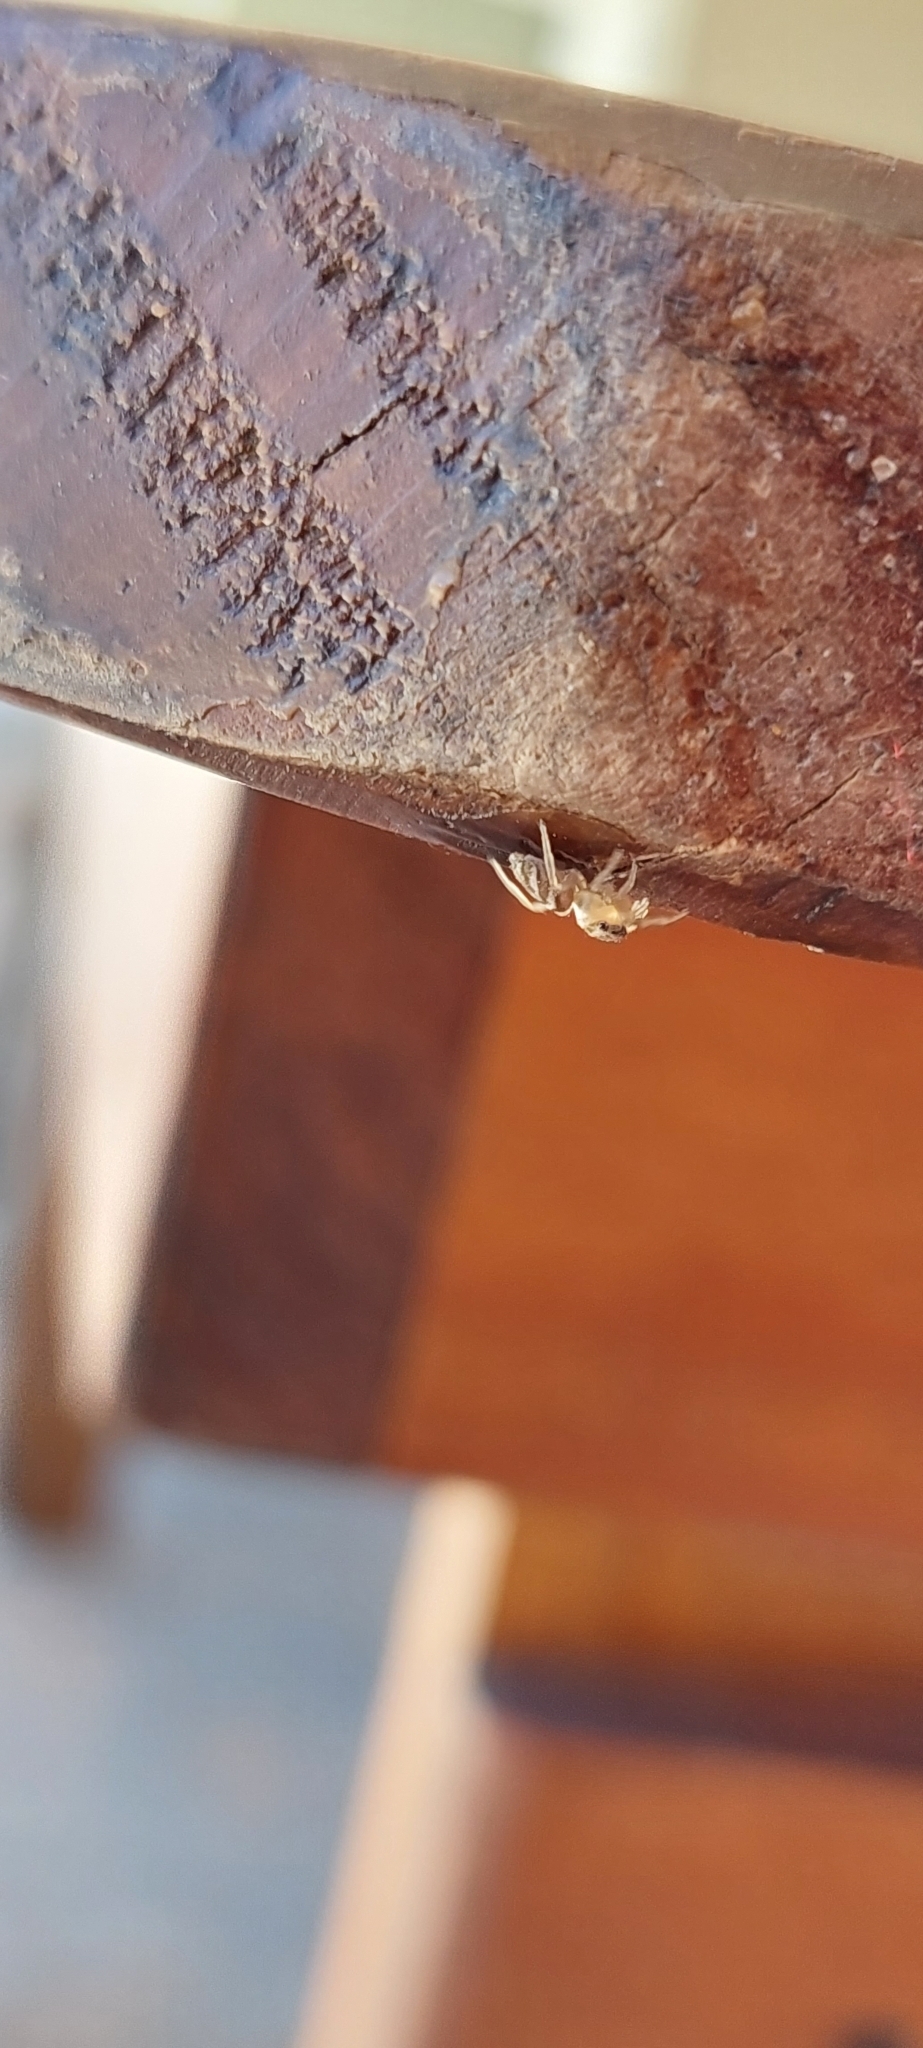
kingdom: Animalia
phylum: Arthropoda
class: Arachnida
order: Araneae
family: Salticidae
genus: Simonurius
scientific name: Simonurius gladifer
